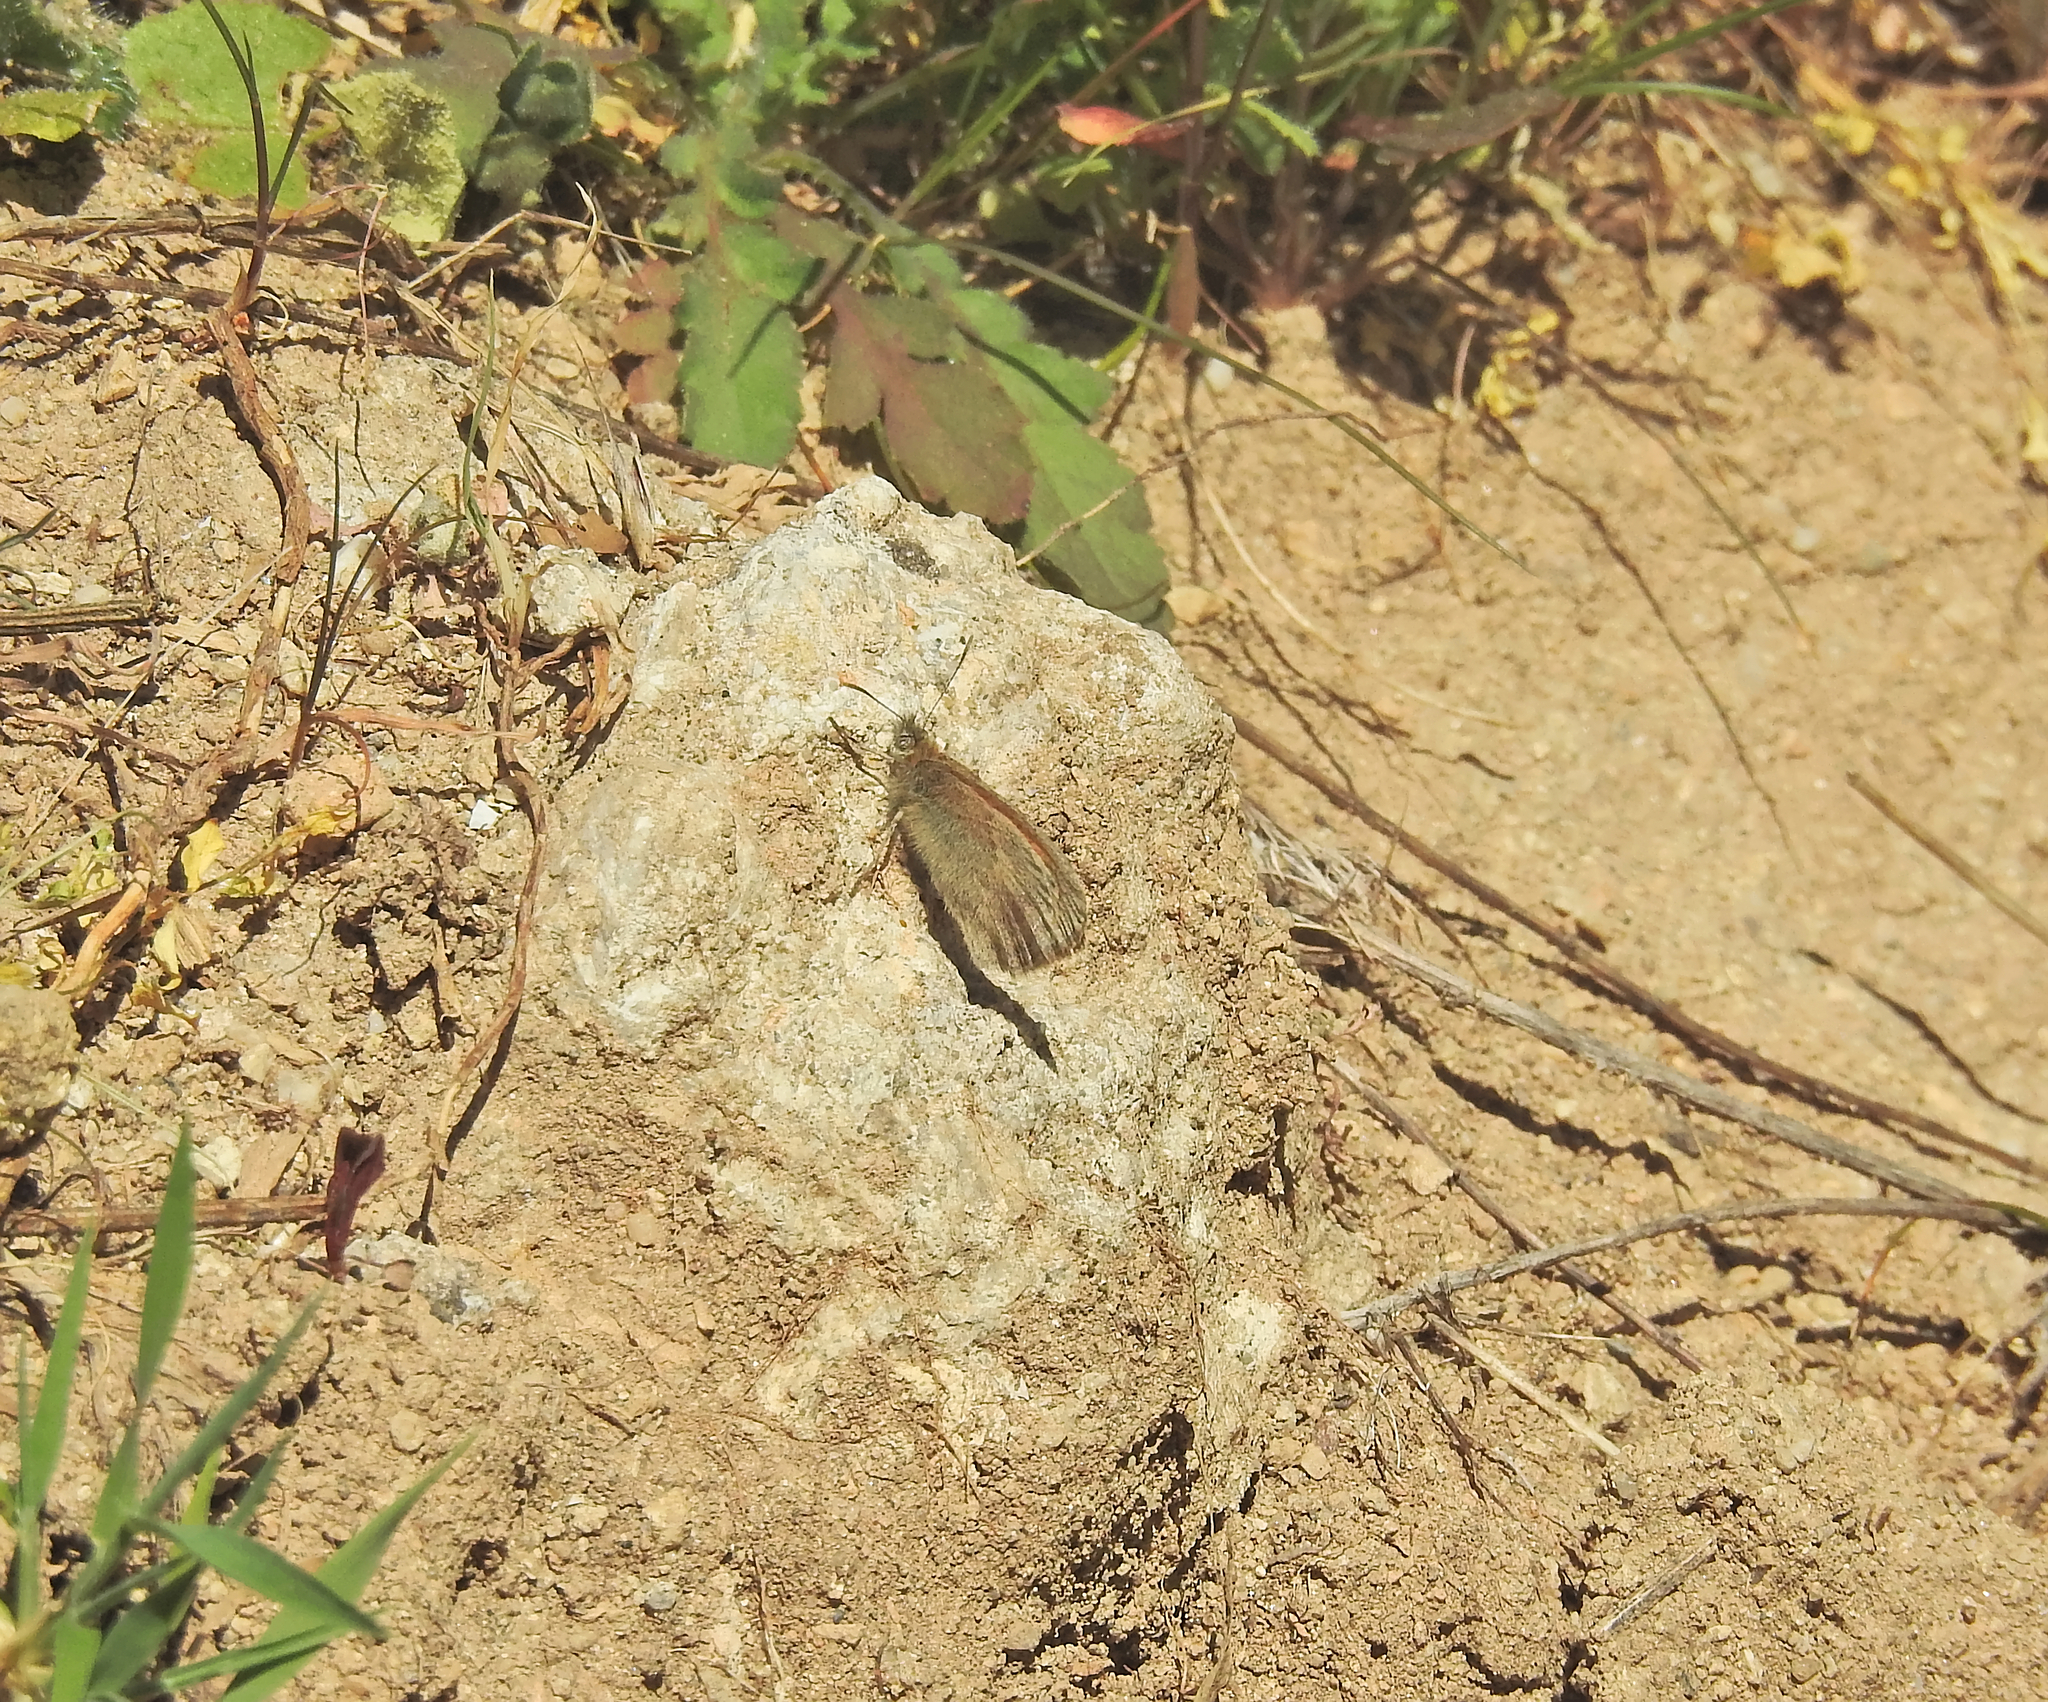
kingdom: Animalia
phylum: Arthropoda
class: Insecta
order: Lepidoptera
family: Nymphalidae
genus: Coenonympha
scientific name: Coenonympha pamphilus
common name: Small heath
